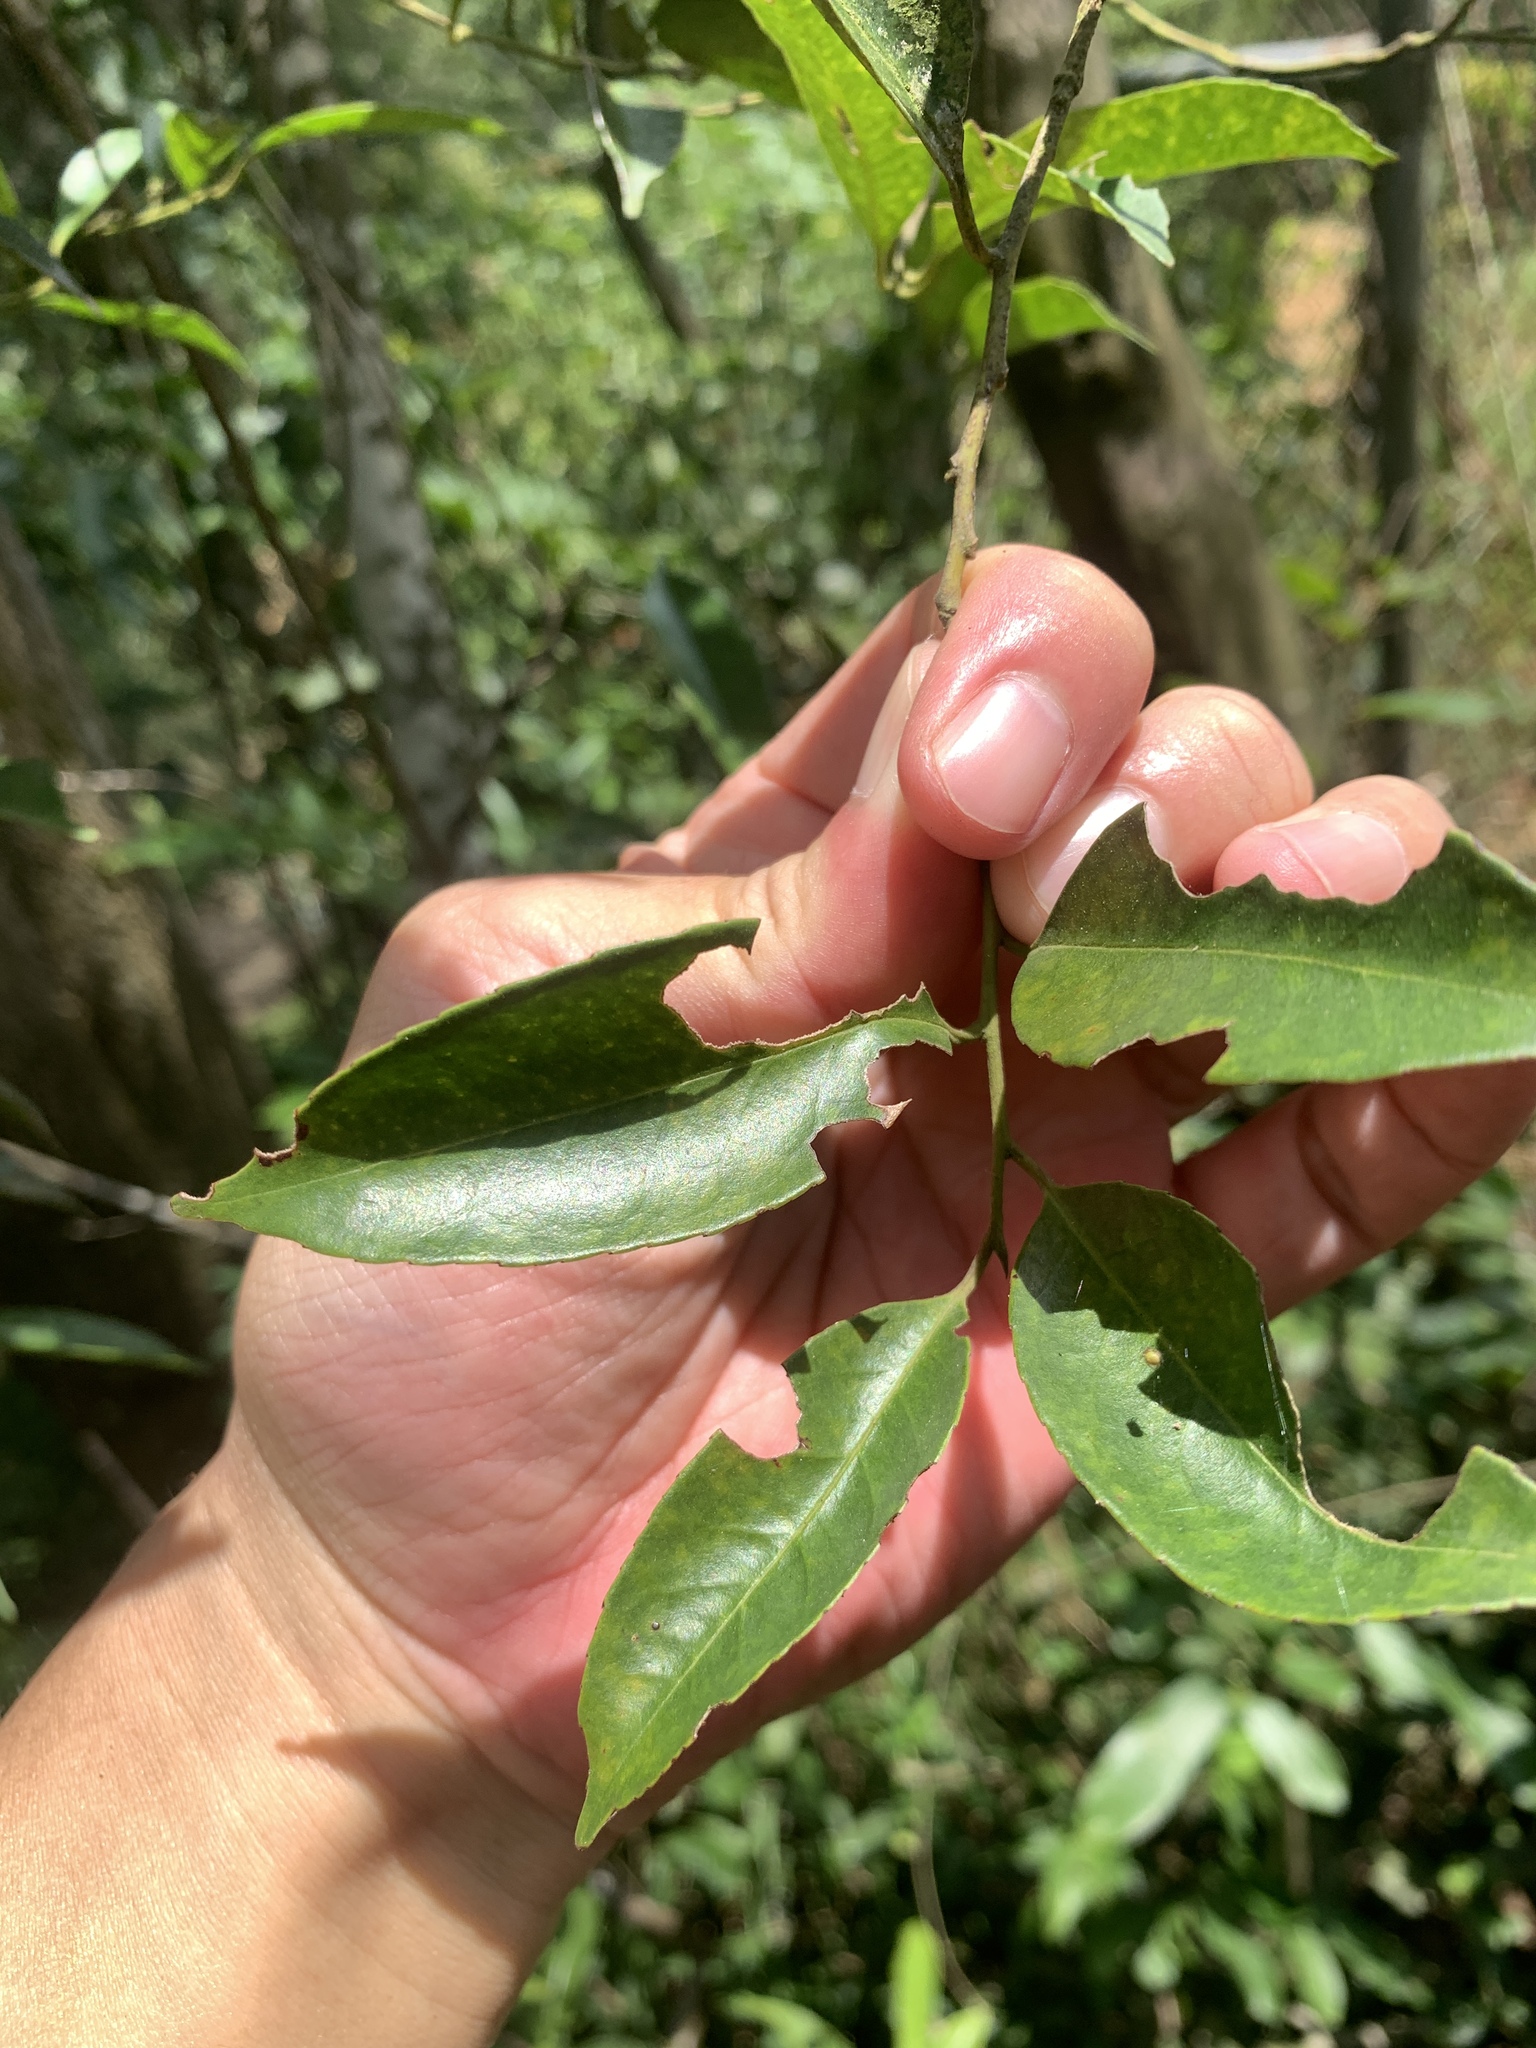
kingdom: Plantae
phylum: Tracheophyta
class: Magnoliopsida
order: Aquifoliales
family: Aquifoliaceae
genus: Ilex
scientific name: Ilex ficoidea
